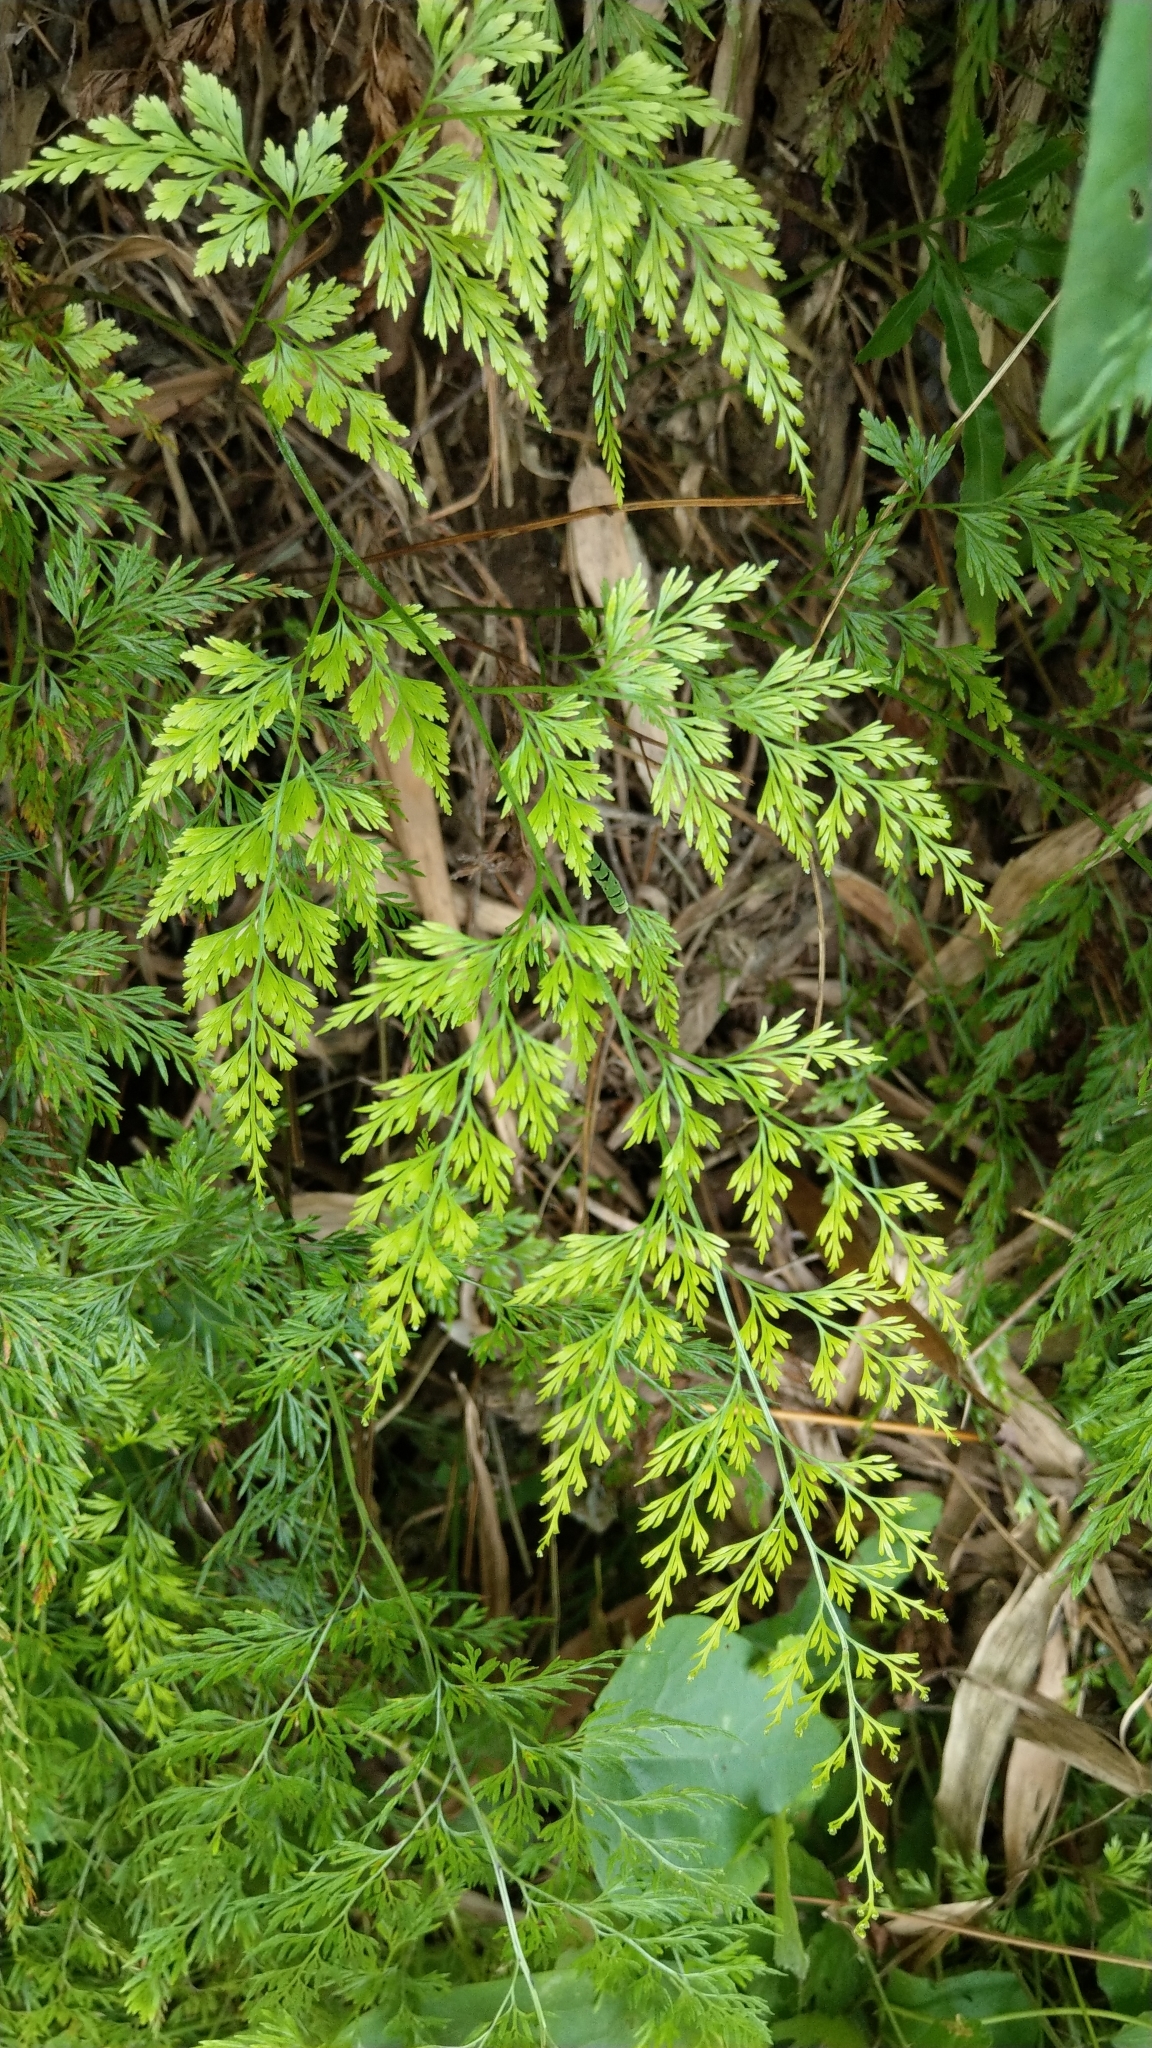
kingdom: Plantae
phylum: Tracheophyta
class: Polypodiopsida
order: Polypodiales
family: Pteridaceae
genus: Onychium
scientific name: Onychium japonicum
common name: Carrot fern
